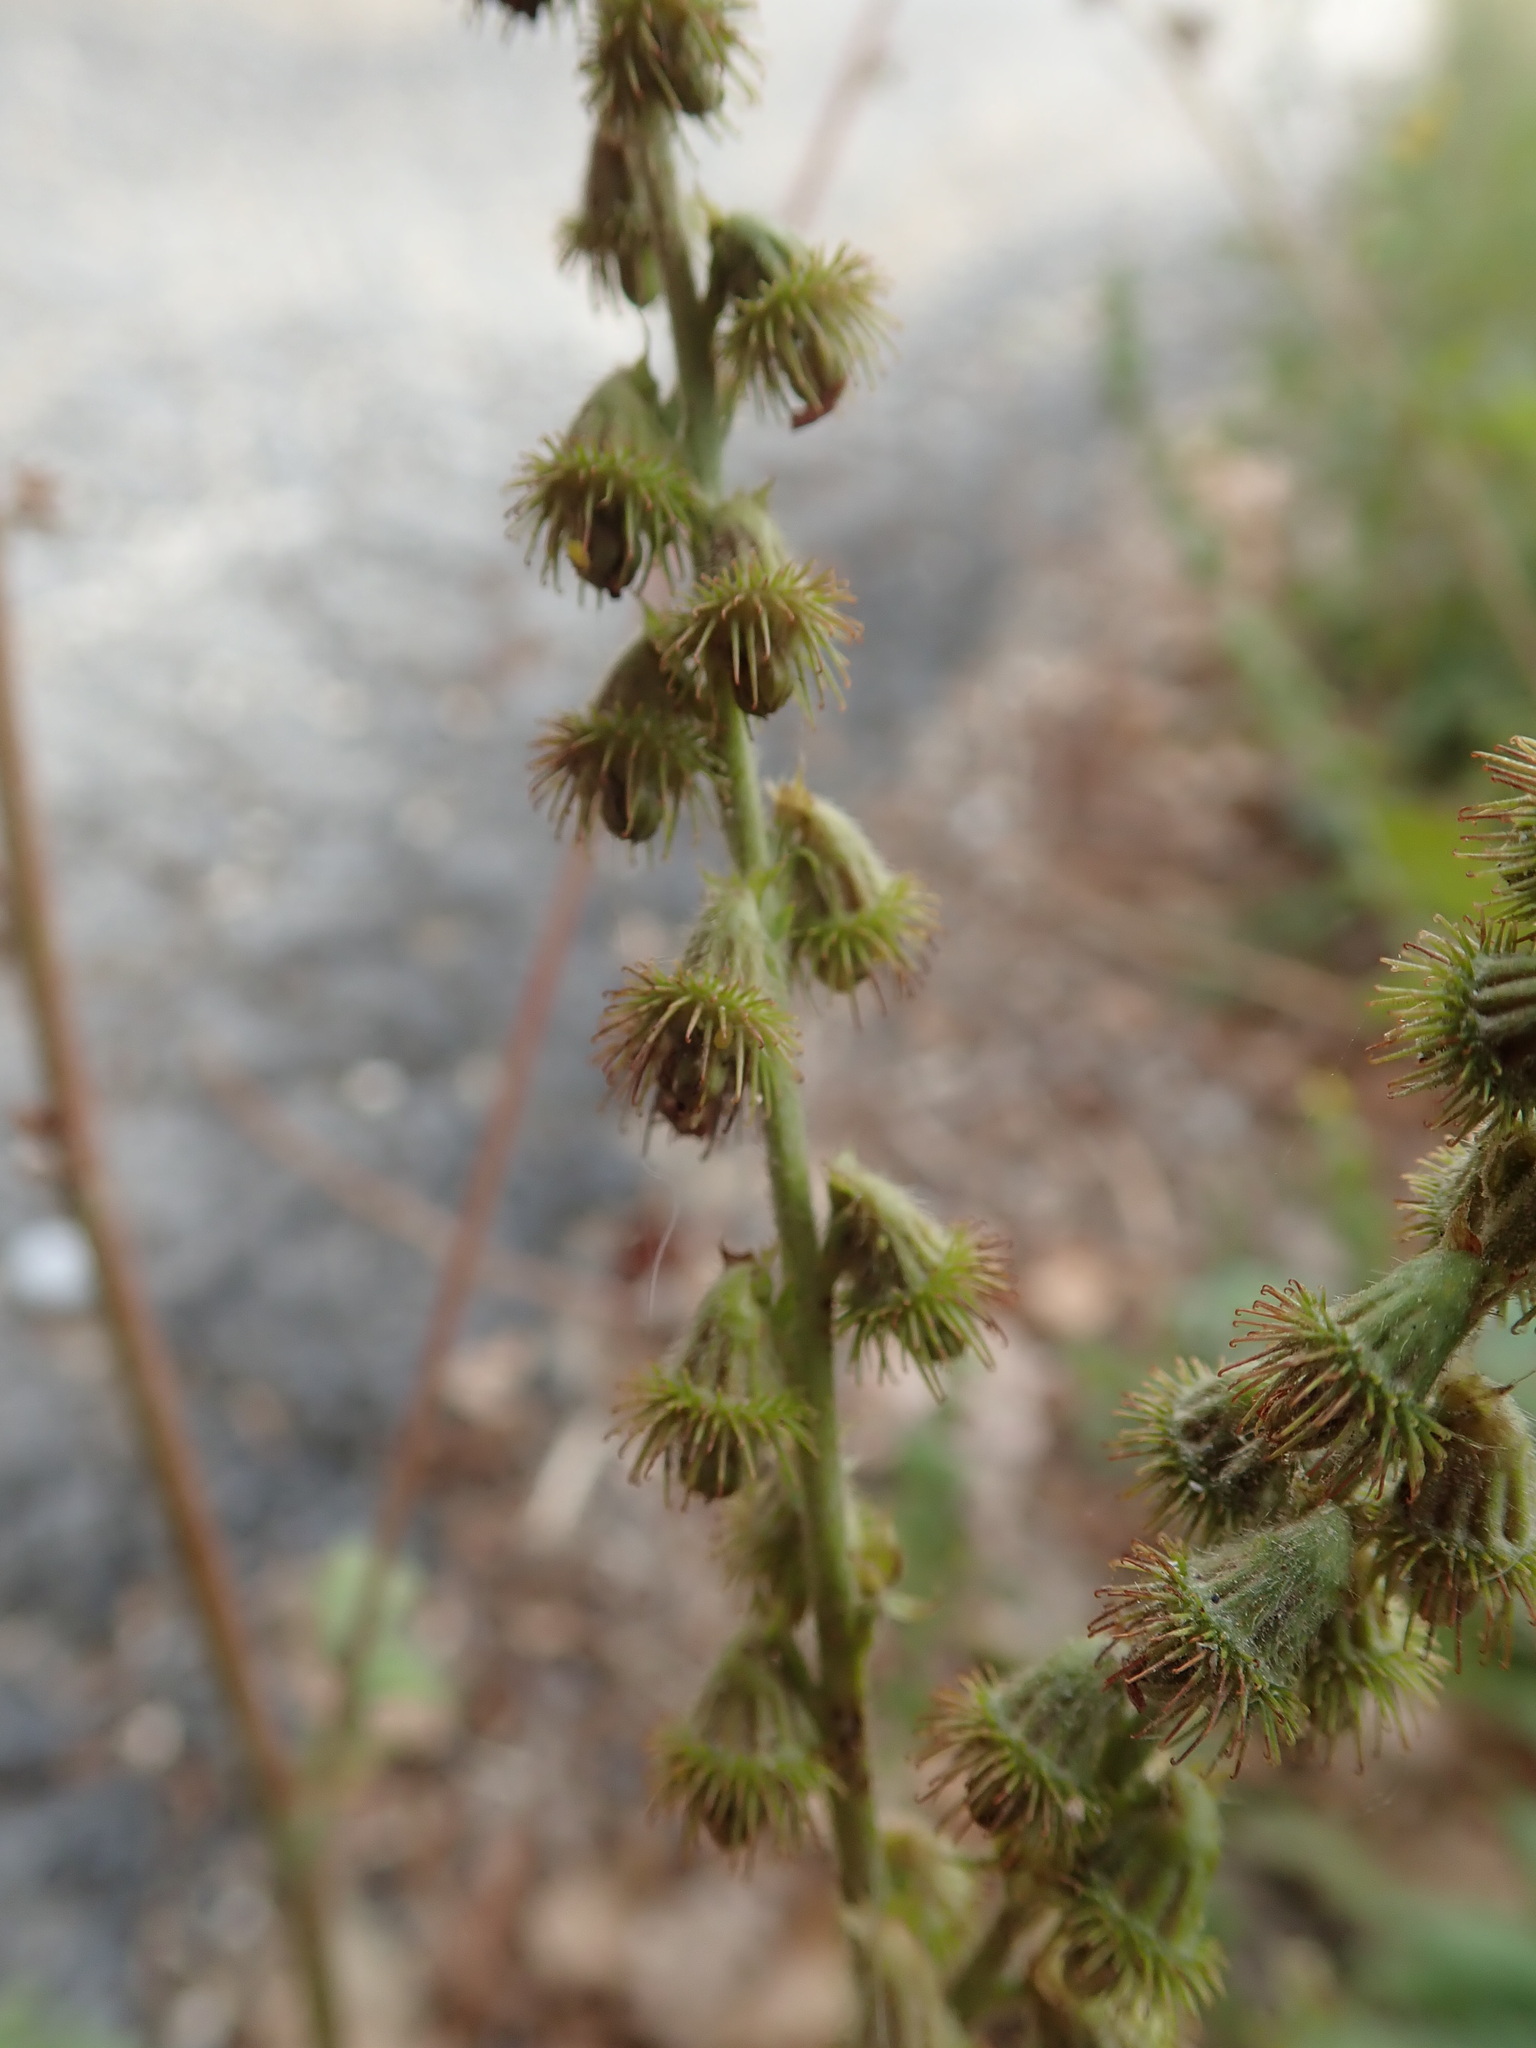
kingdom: Plantae
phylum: Tracheophyta
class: Magnoliopsida
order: Rosales
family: Rosaceae
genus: Agrimonia
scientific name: Agrimonia eupatoria
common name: Agrimony
